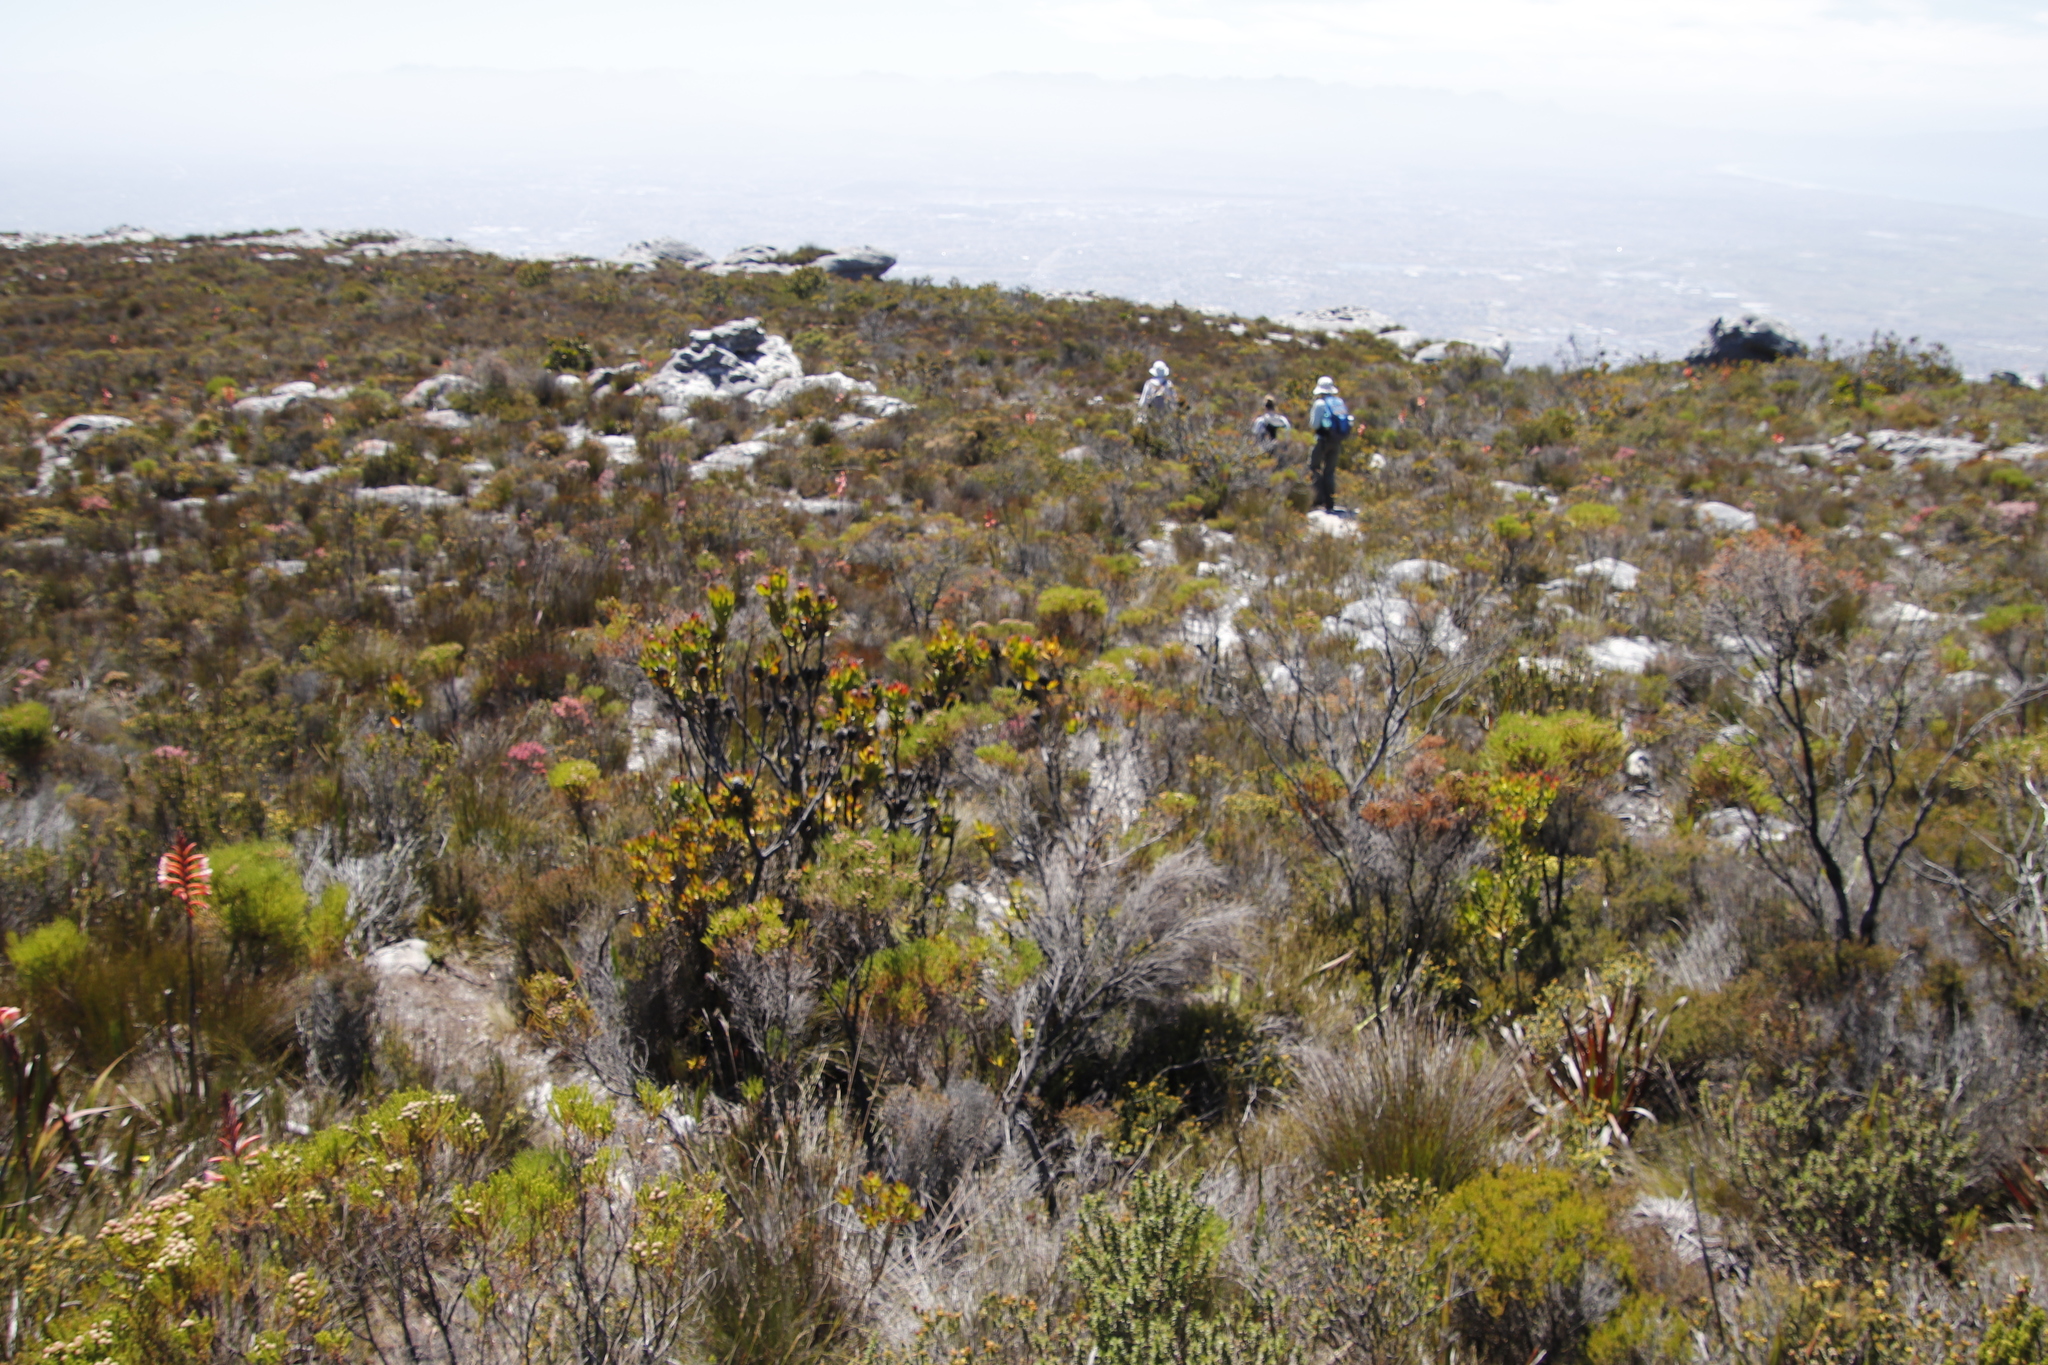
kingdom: Plantae
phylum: Tracheophyta
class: Magnoliopsida
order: Bruniales
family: Bruniaceae
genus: Berzelia
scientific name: Berzelia lanuginosa
